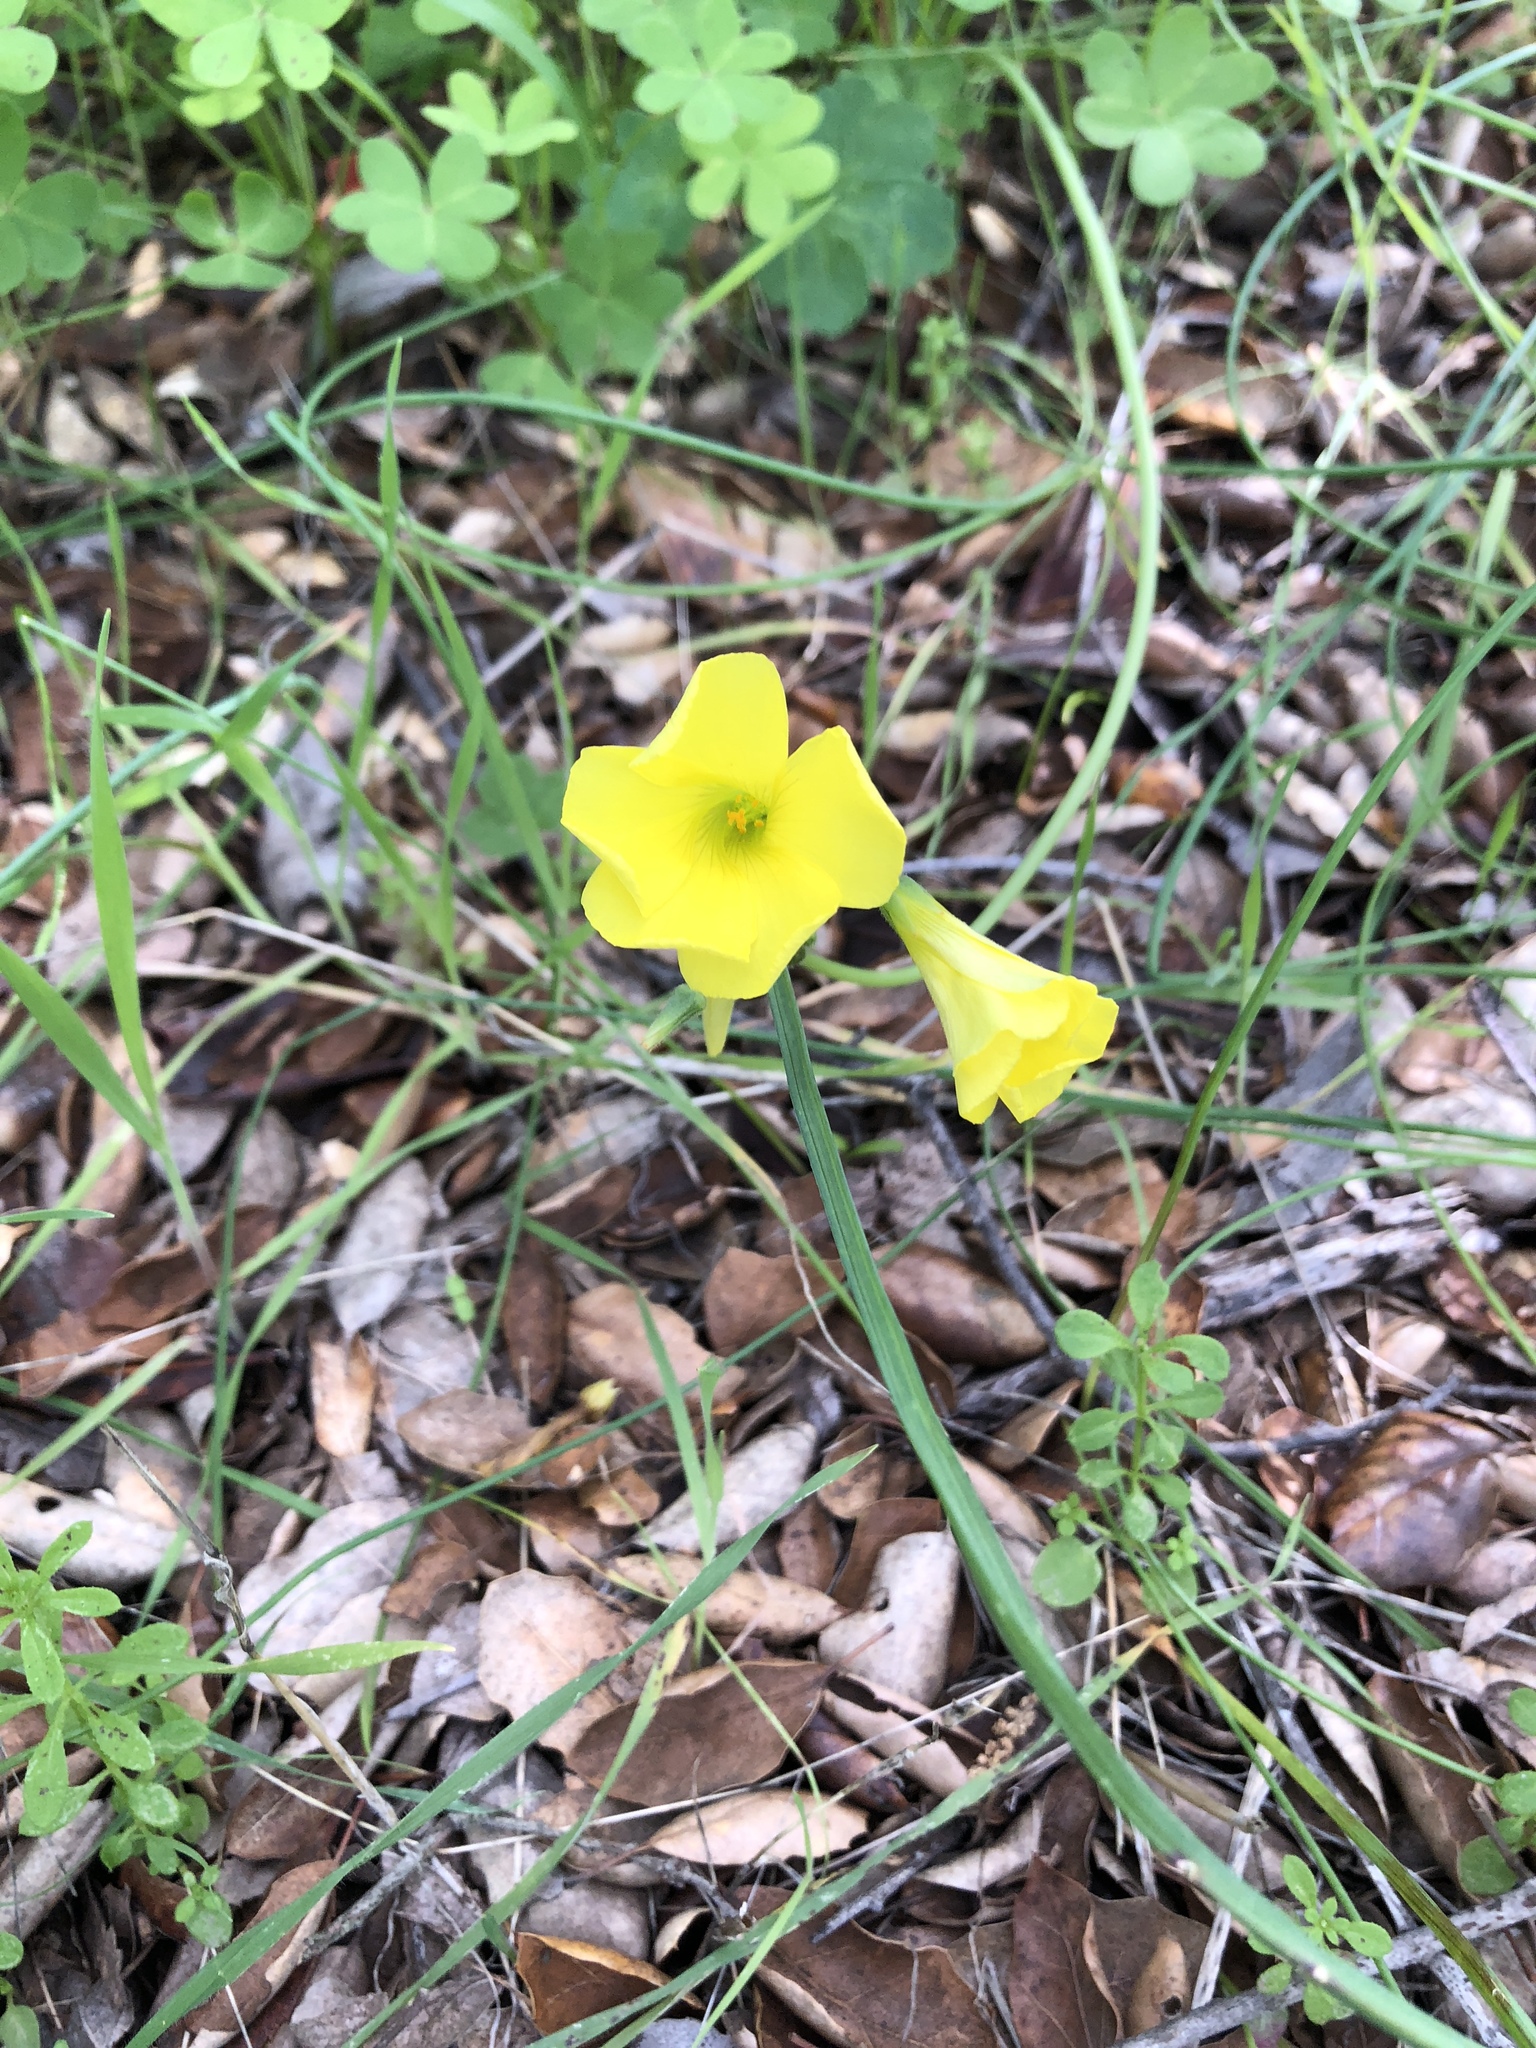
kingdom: Plantae
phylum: Tracheophyta
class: Magnoliopsida
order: Oxalidales
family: Oxalidaceae
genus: Oxalis
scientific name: Oxalis pes-caprae
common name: Bermuda-buttercup
